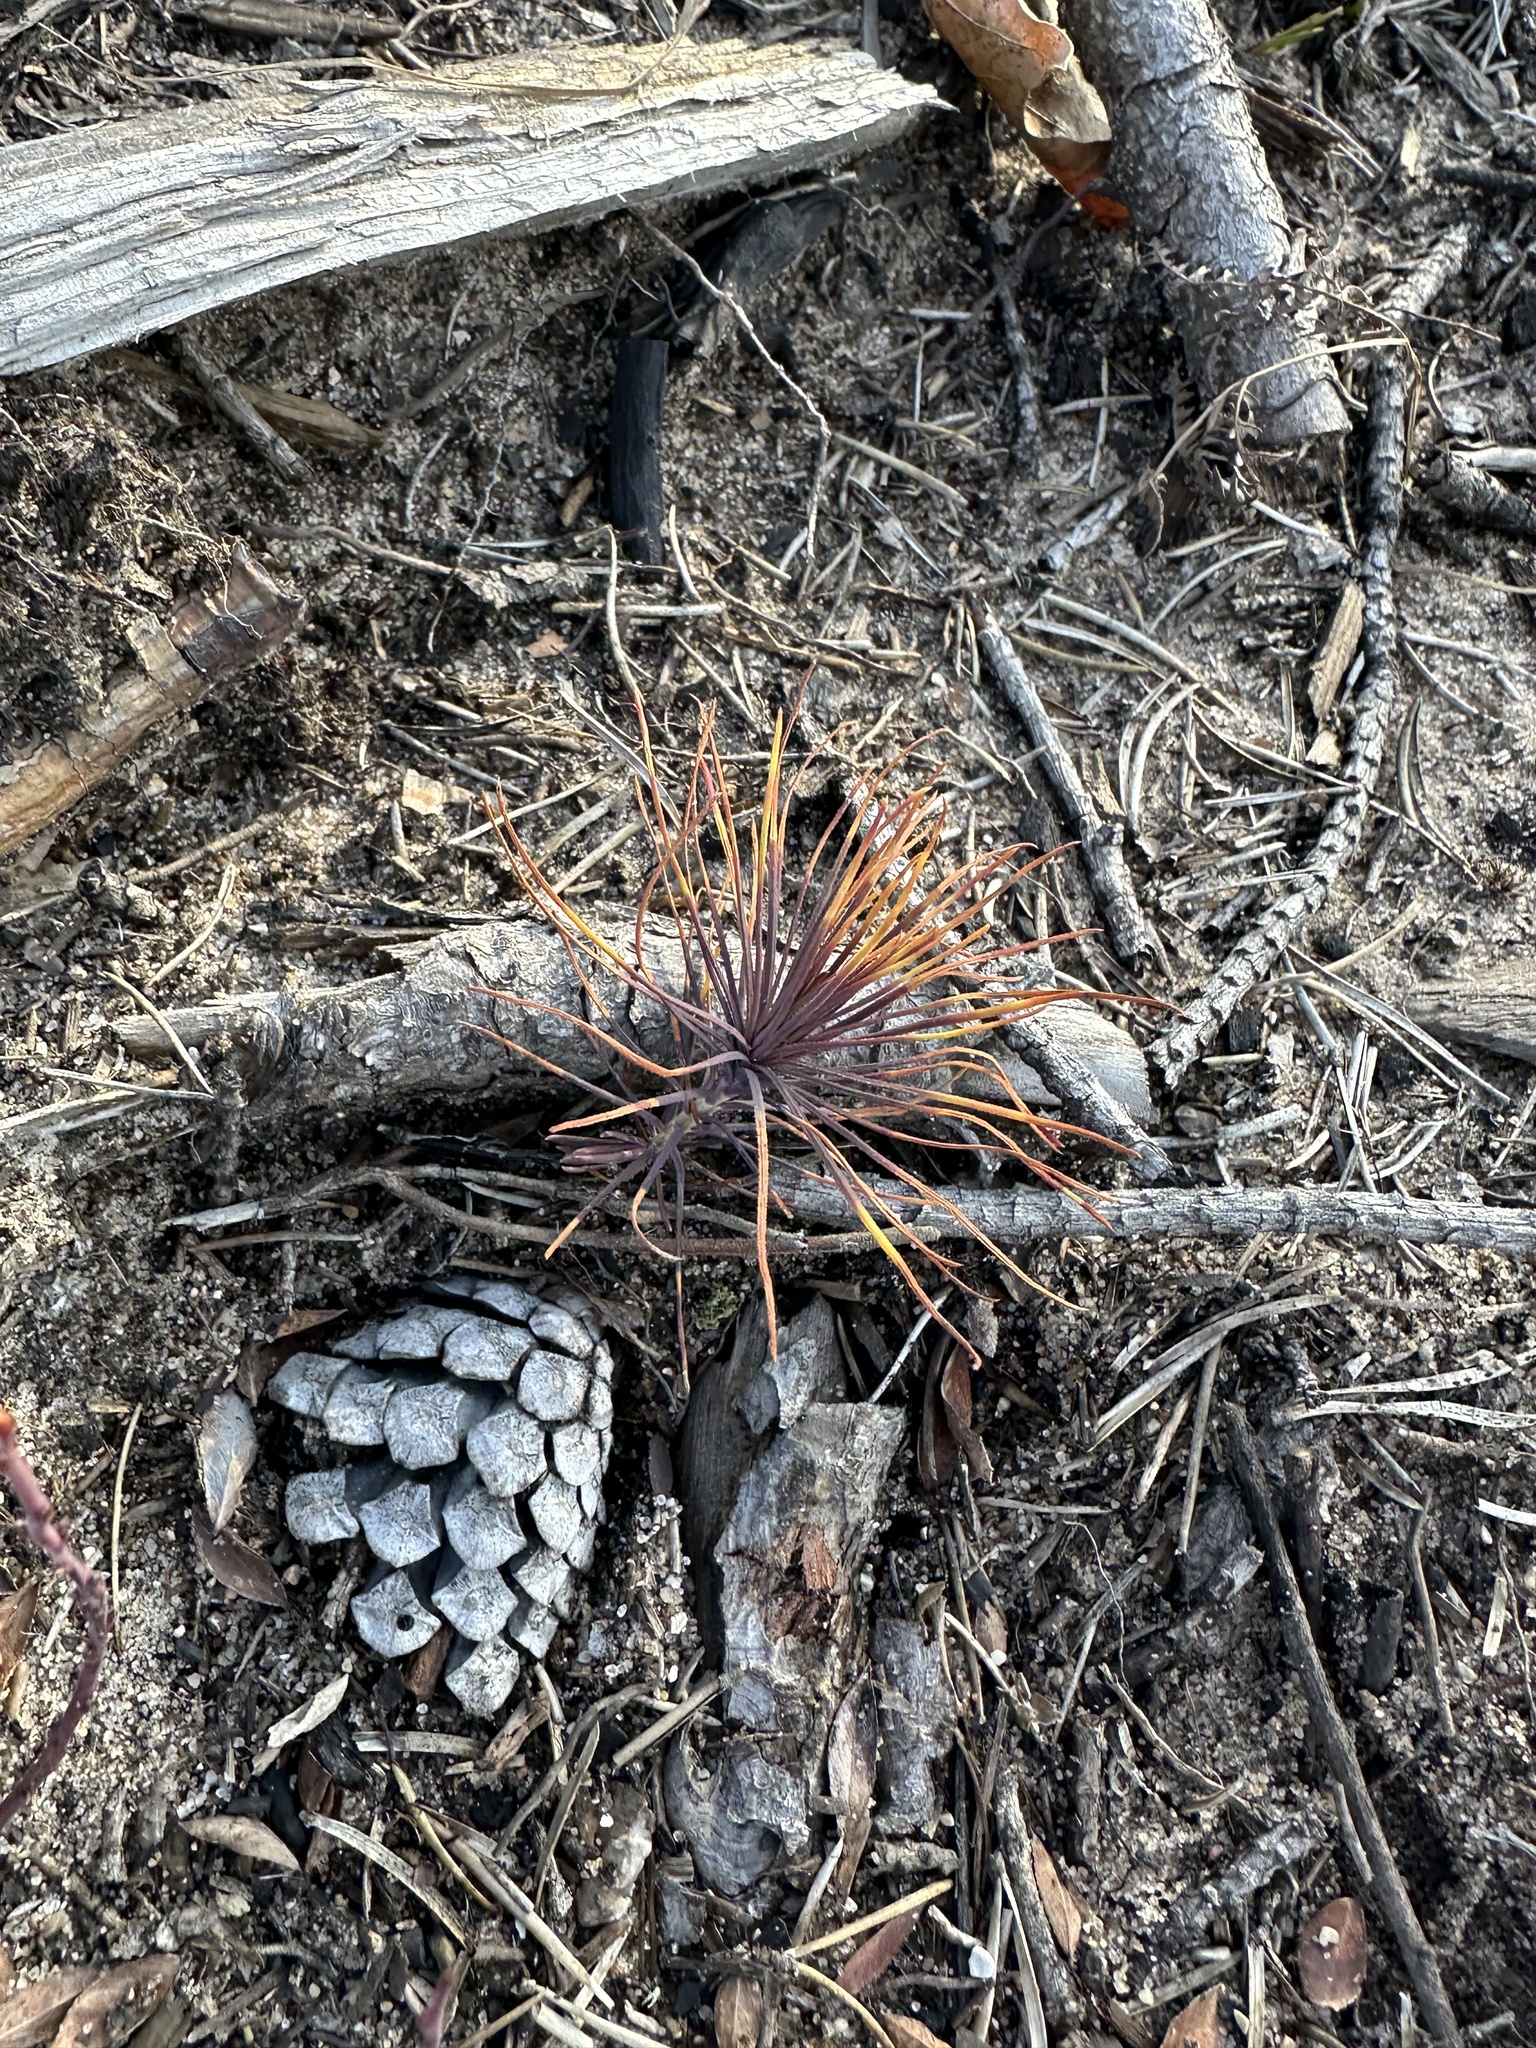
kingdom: Plantae
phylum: Tracheophyta
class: Pinopsida
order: Pinales
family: Pinaceae
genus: Pinus
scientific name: Pinus banksiana
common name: Jack pine
